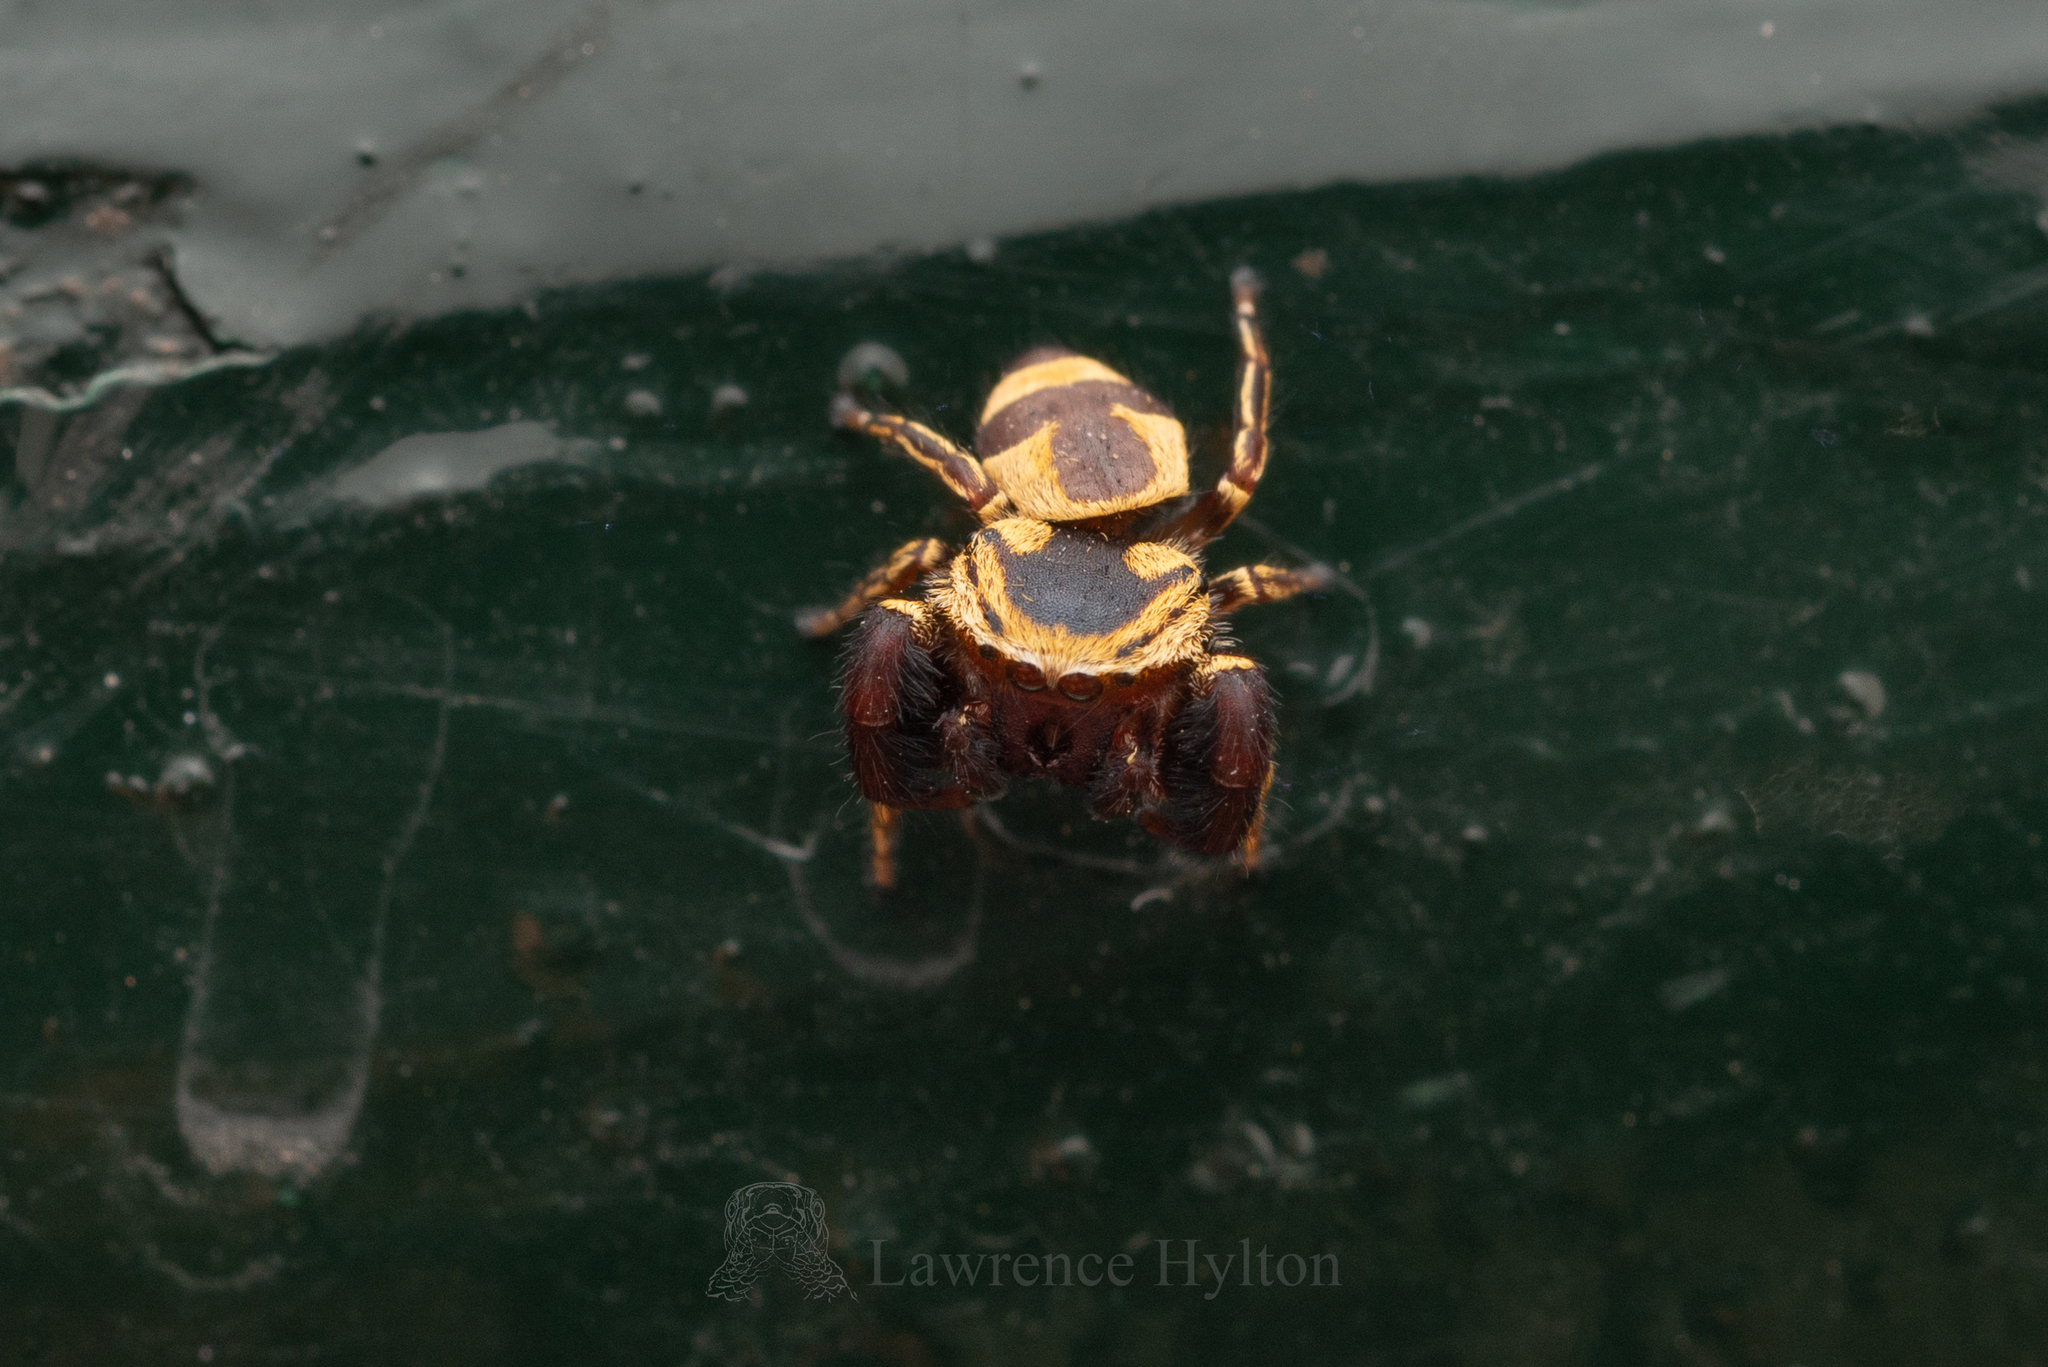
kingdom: Animalia
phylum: Arthropoda
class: Arachnida
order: Araneae
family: Salticidae
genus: Rhene
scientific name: Rhene flavicomans
